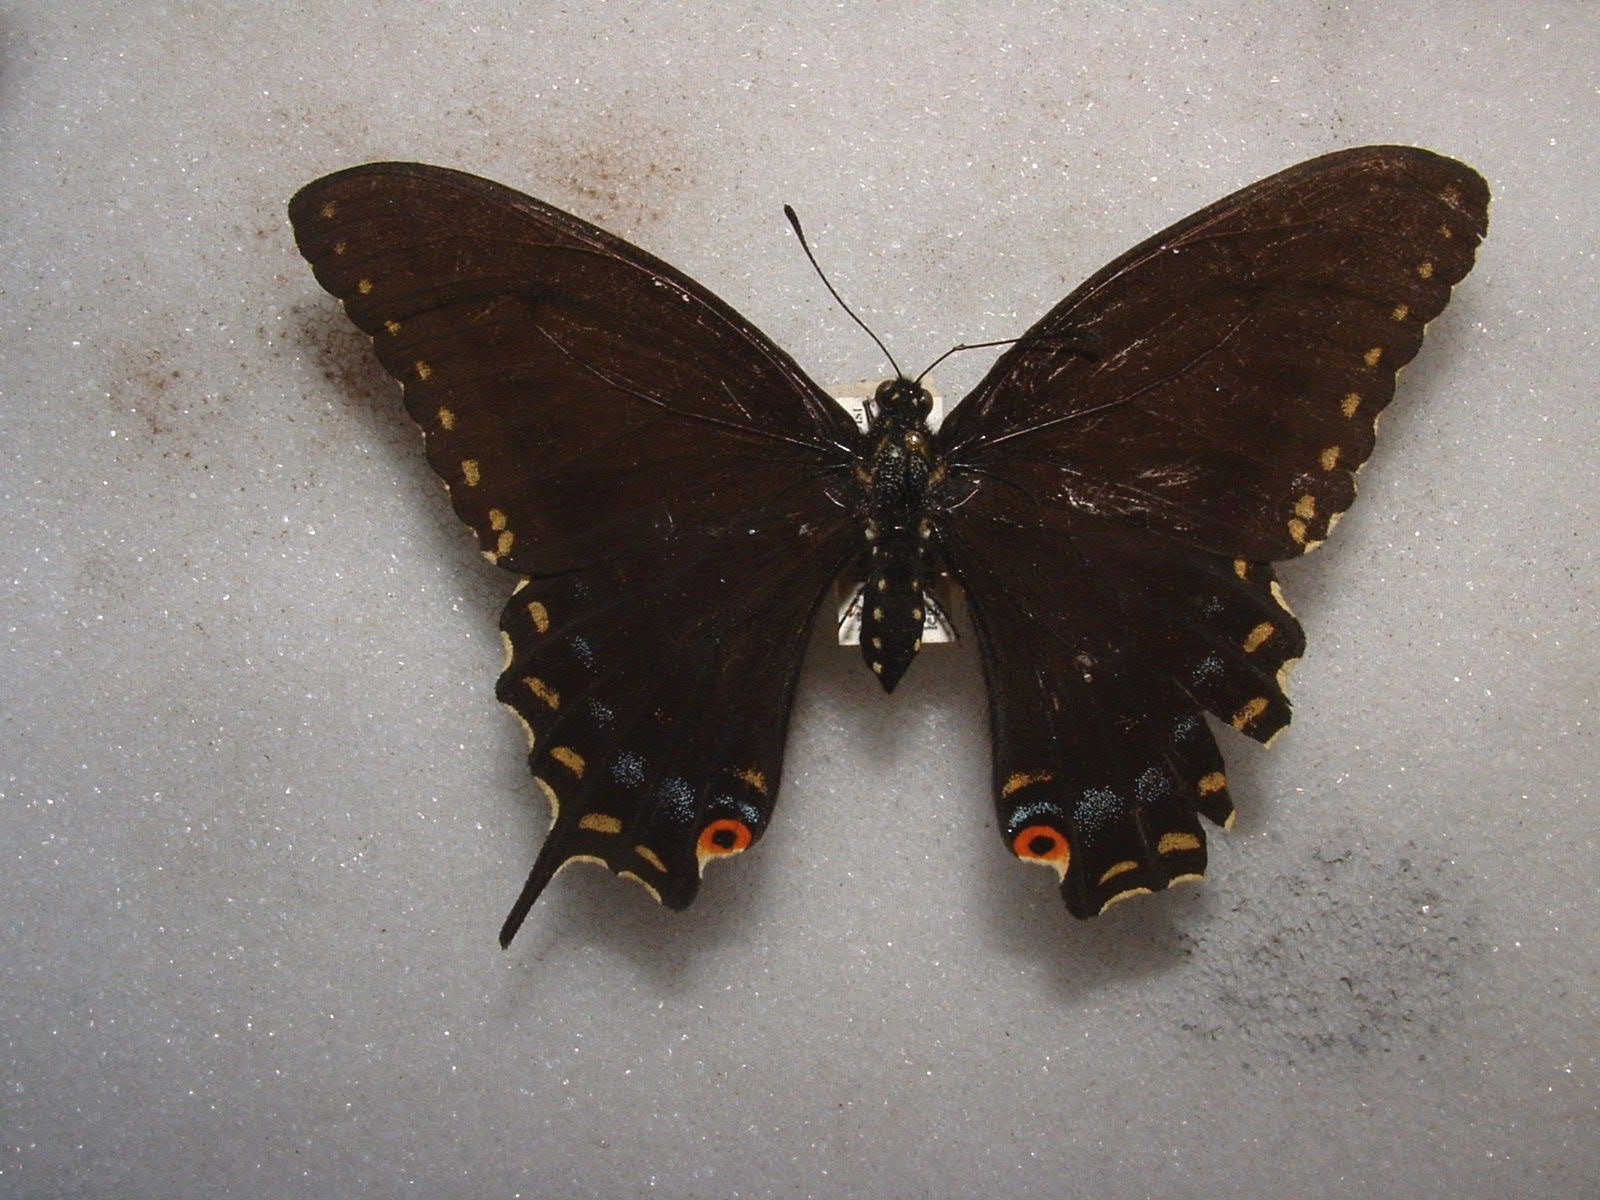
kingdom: Animalia
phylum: Arthropoda
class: Insecta
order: Lepidoptera
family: Papilionidae
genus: Papilio
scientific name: Papilio polyxenes
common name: Black swallowtail
